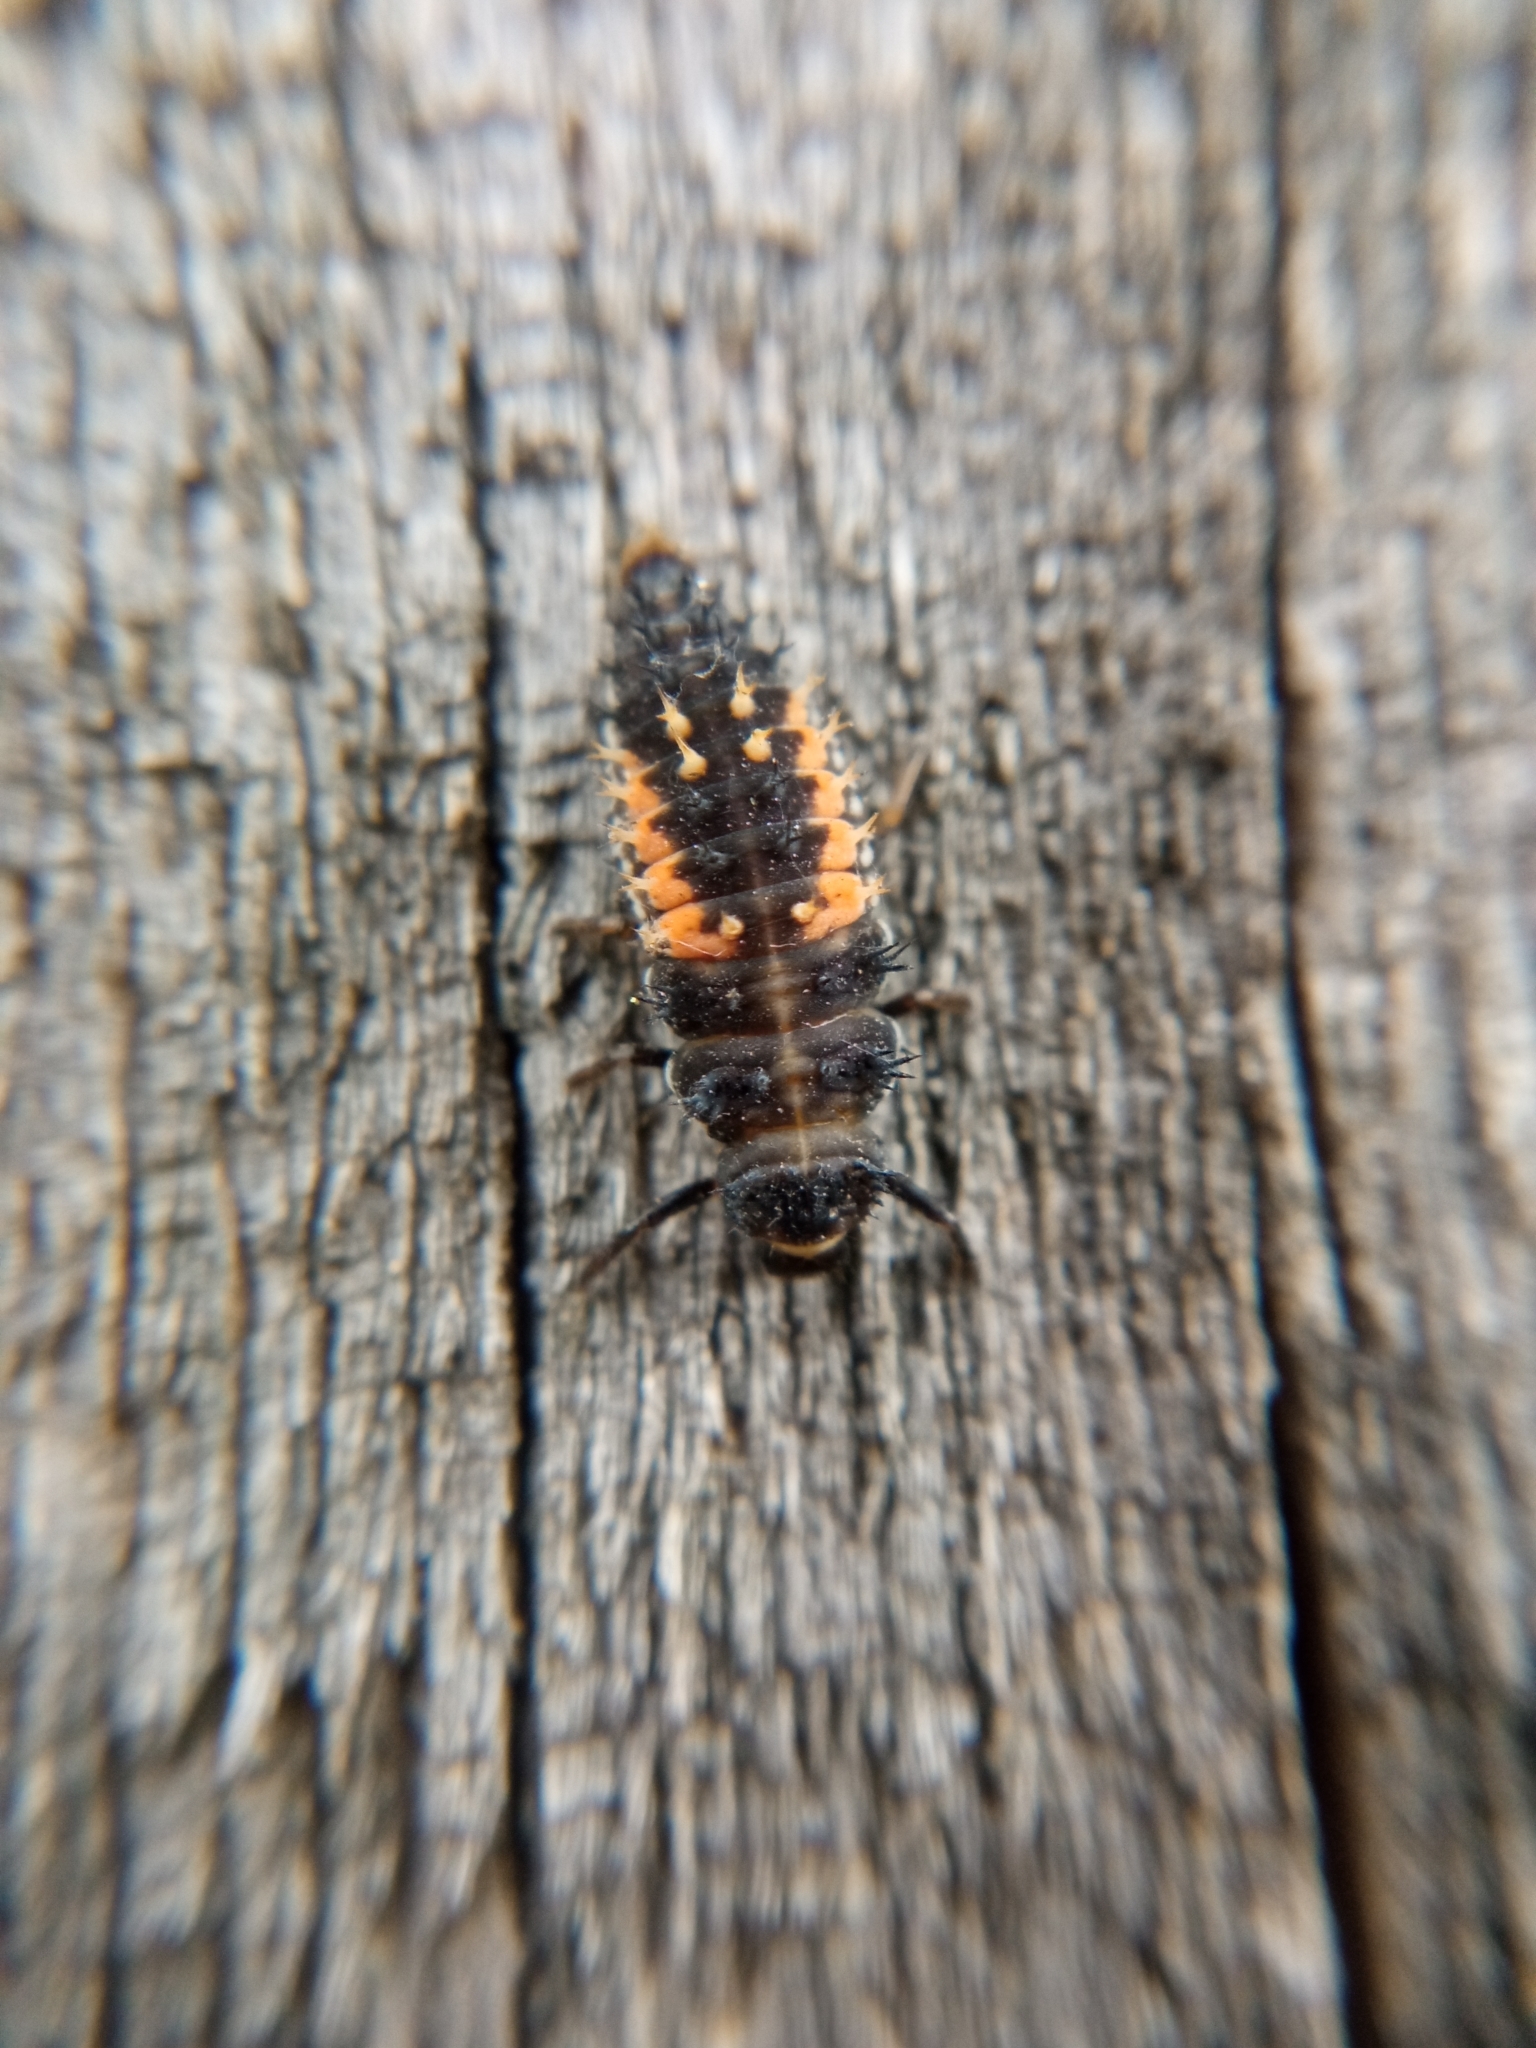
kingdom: Animalia
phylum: Arthropoda
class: Insecta
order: Coleoptera
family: Coccinellidae
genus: Harmonia
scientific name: Harmonia axyridis
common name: Harlequin ladybird
